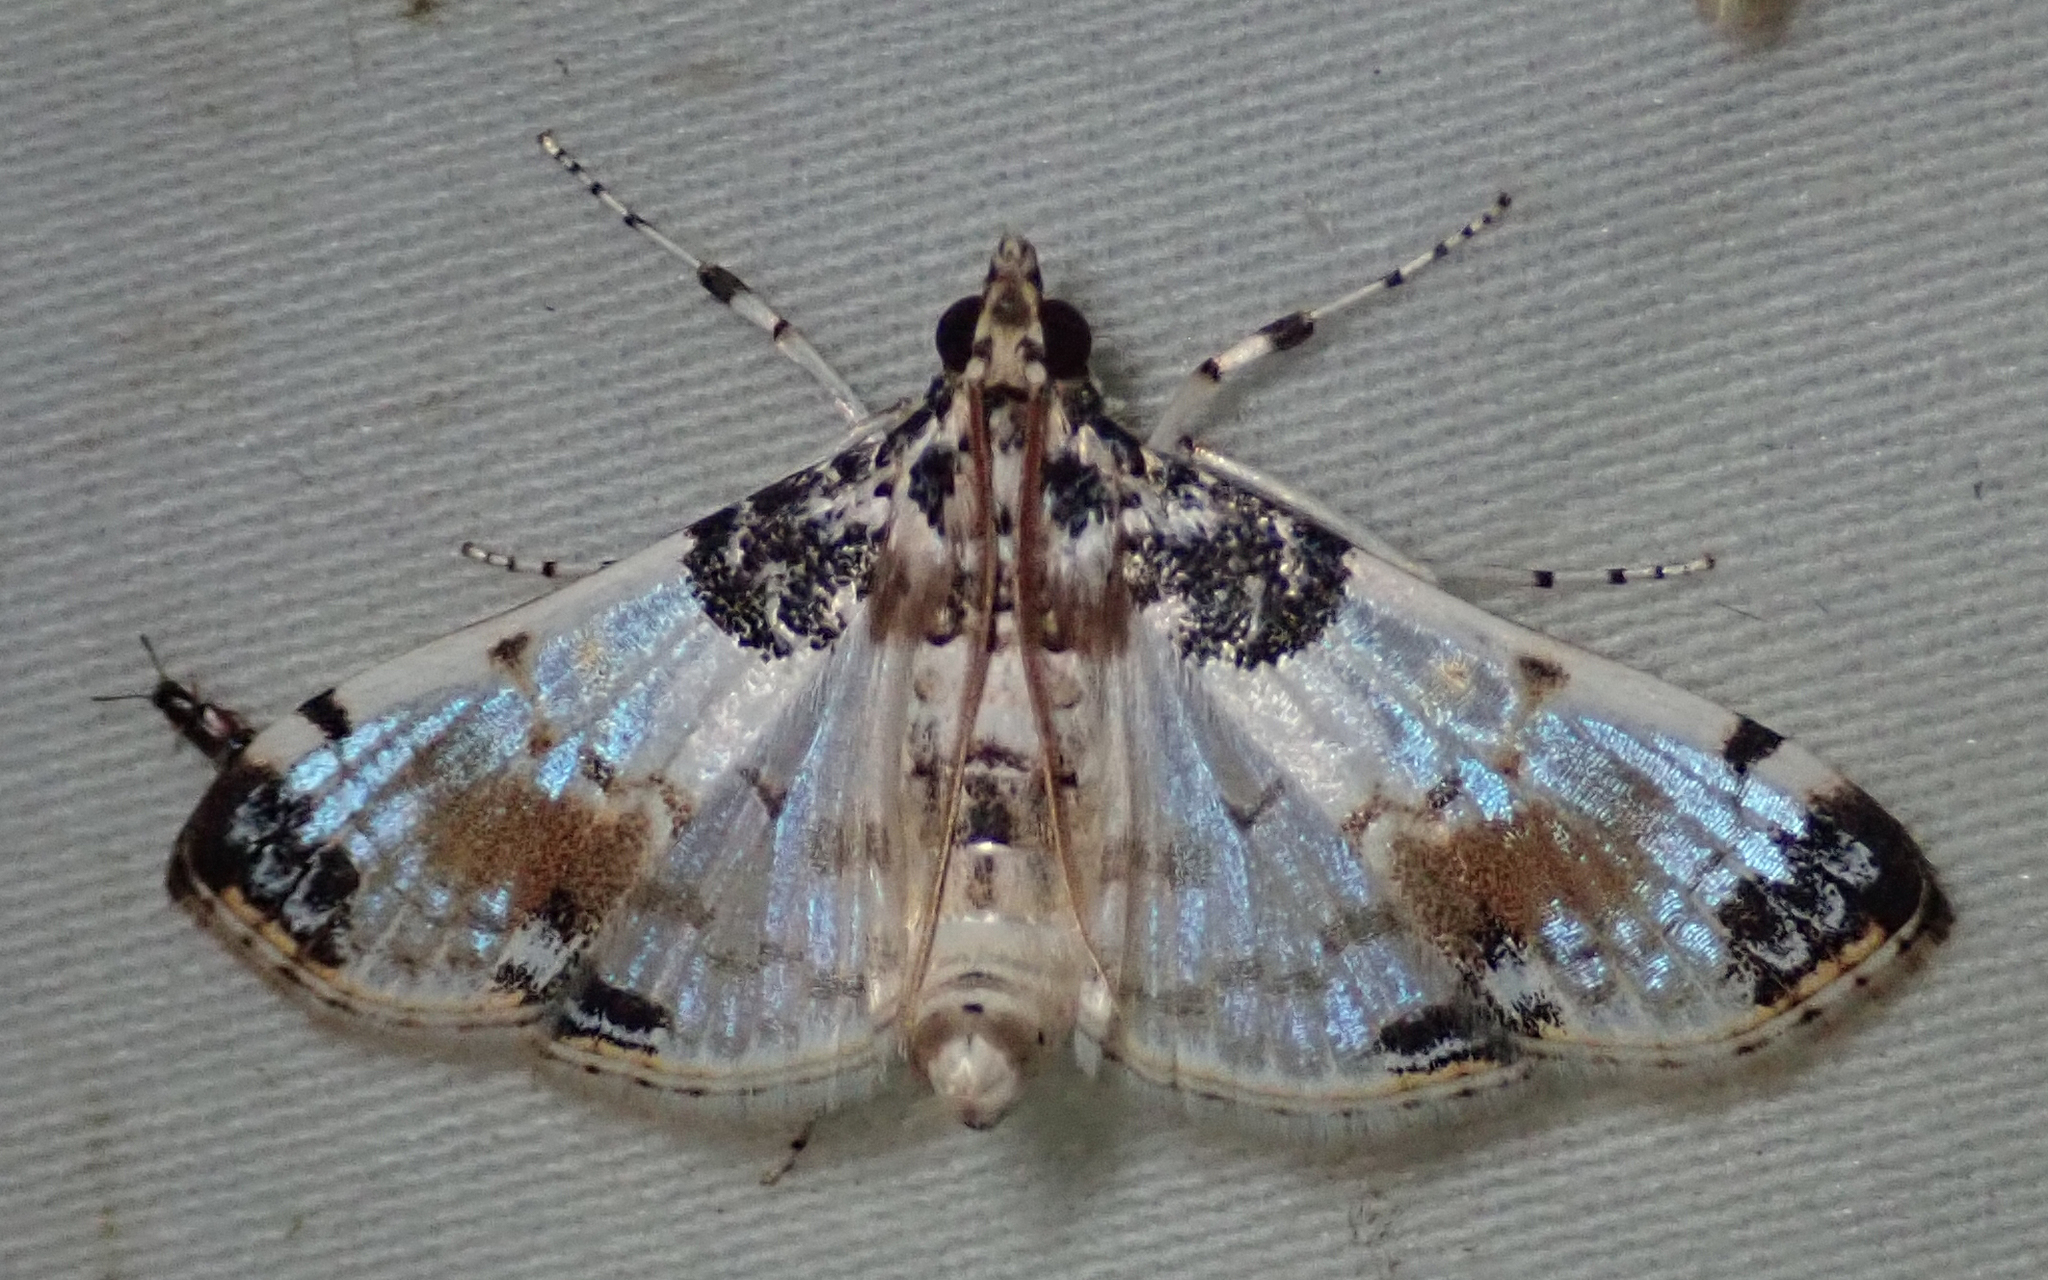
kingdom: Animalia
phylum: Arthropoda
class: Insecta
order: Lepidoptera
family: Crambidae
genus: Analyta
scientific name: Analyta calligrammalis
